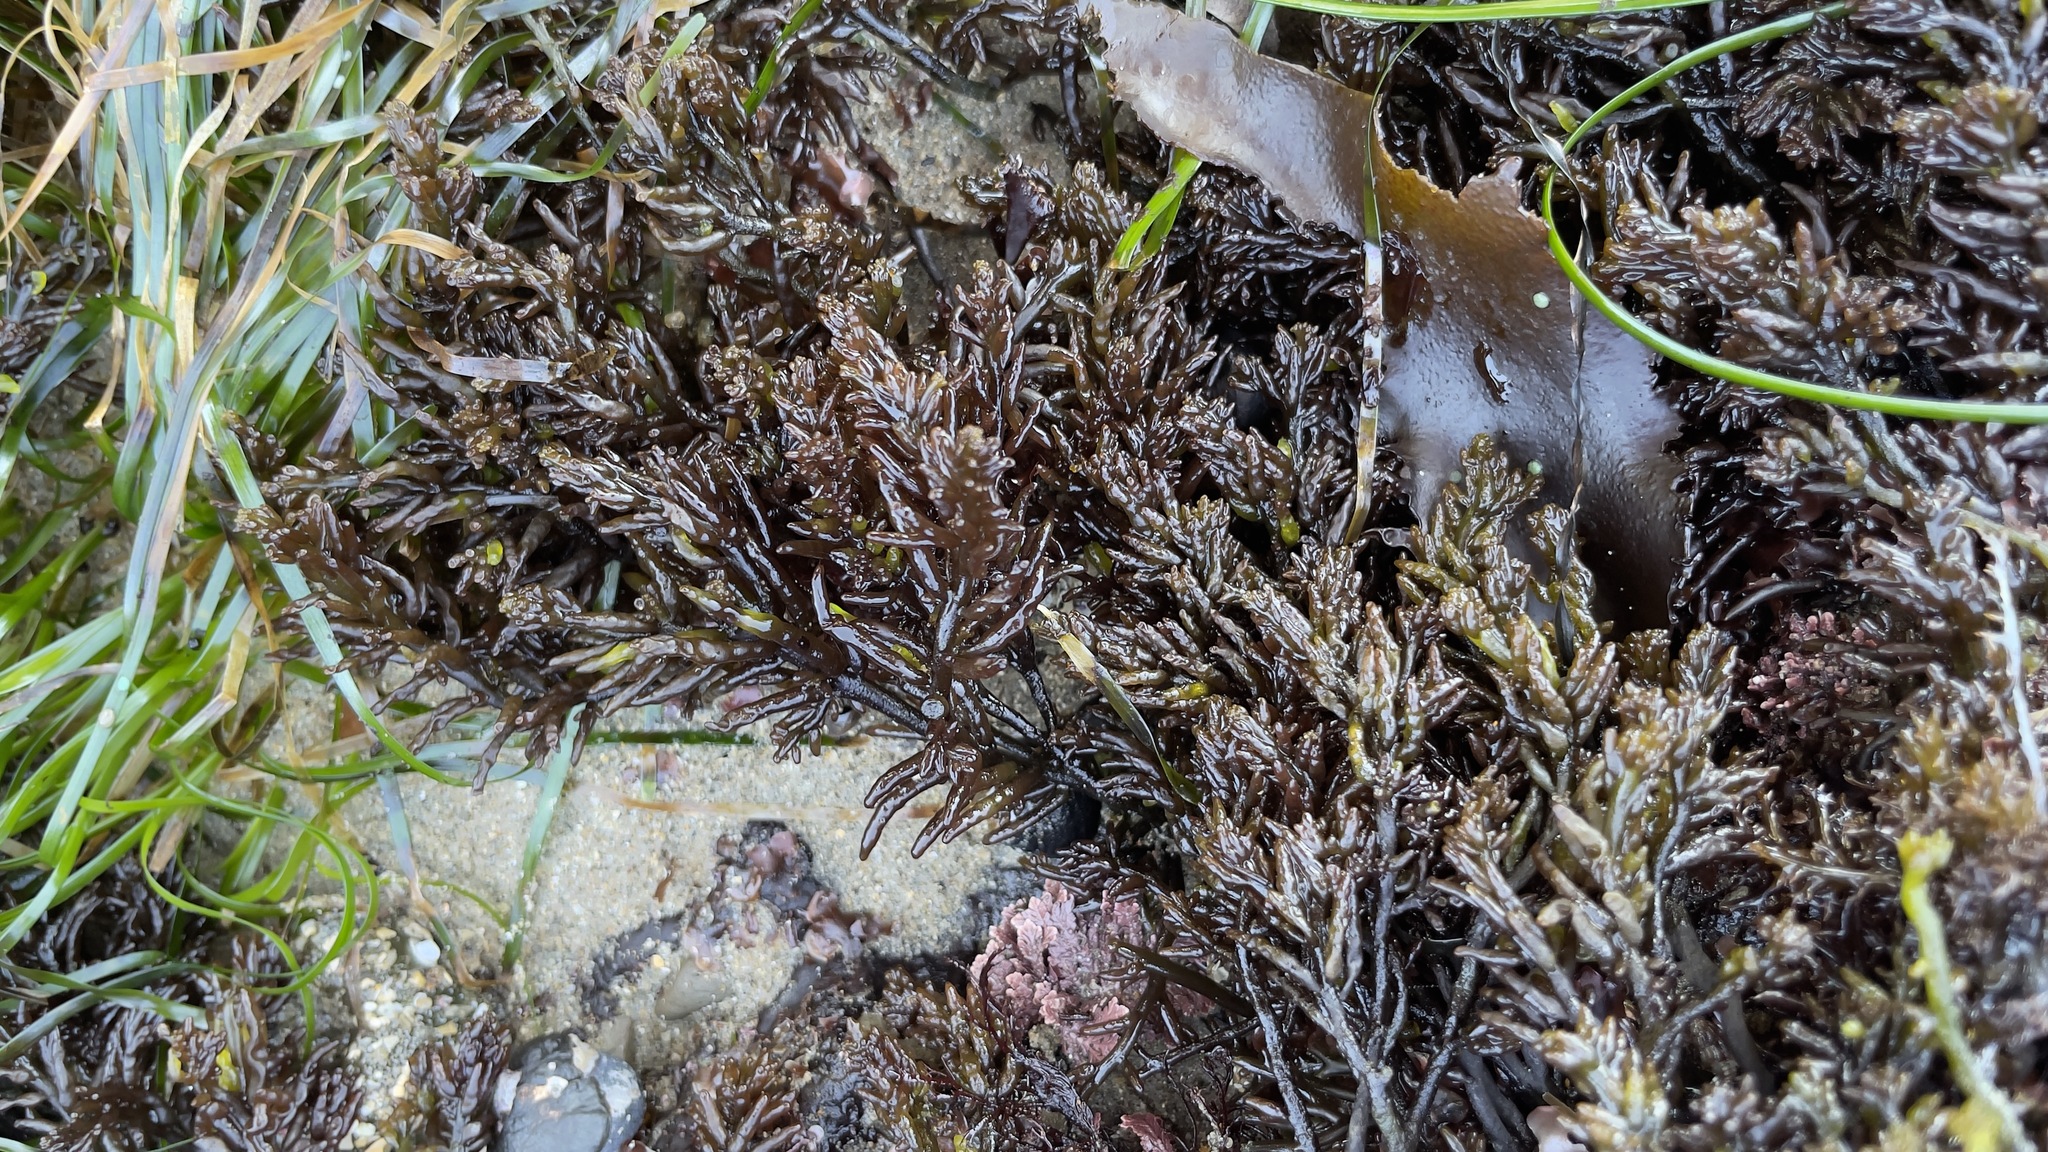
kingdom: Plantae
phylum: Rhodophyta
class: Florideophyceae
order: Rhodymeniales
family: Champiaceae
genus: Neogastroclonium
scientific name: Neogastroclonium subarticulatum
